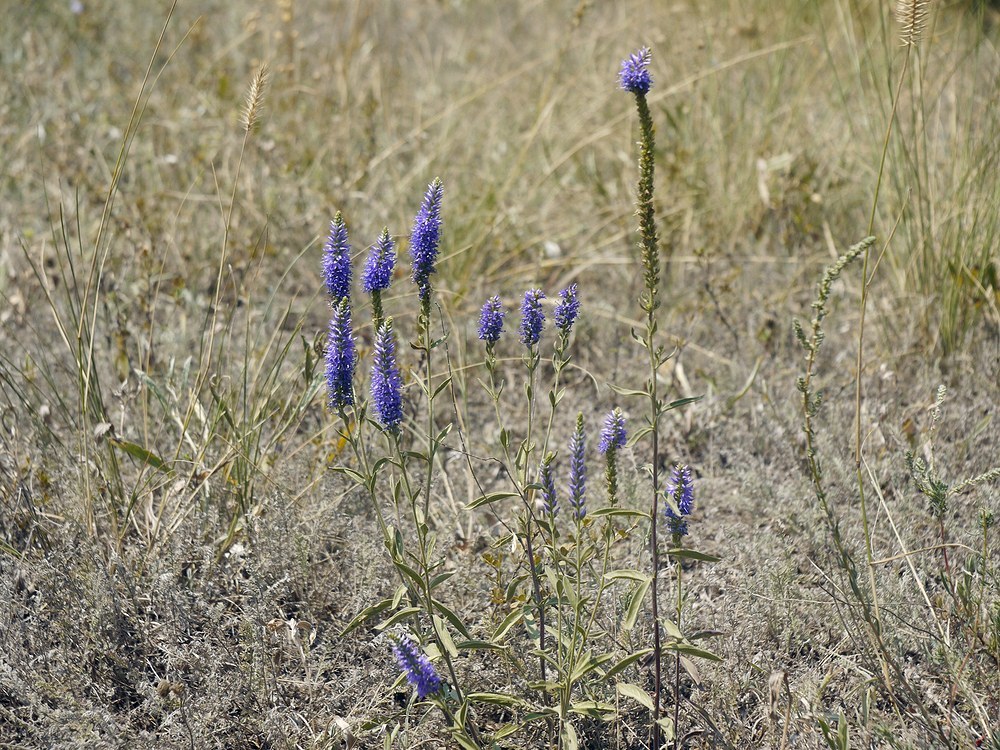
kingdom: Plantae
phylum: Tracheophyta
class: Magnoliopsida
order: Lamiales
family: Plantaginaceae
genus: Veronica
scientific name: Veronica spicata
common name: Spiked speedwell
